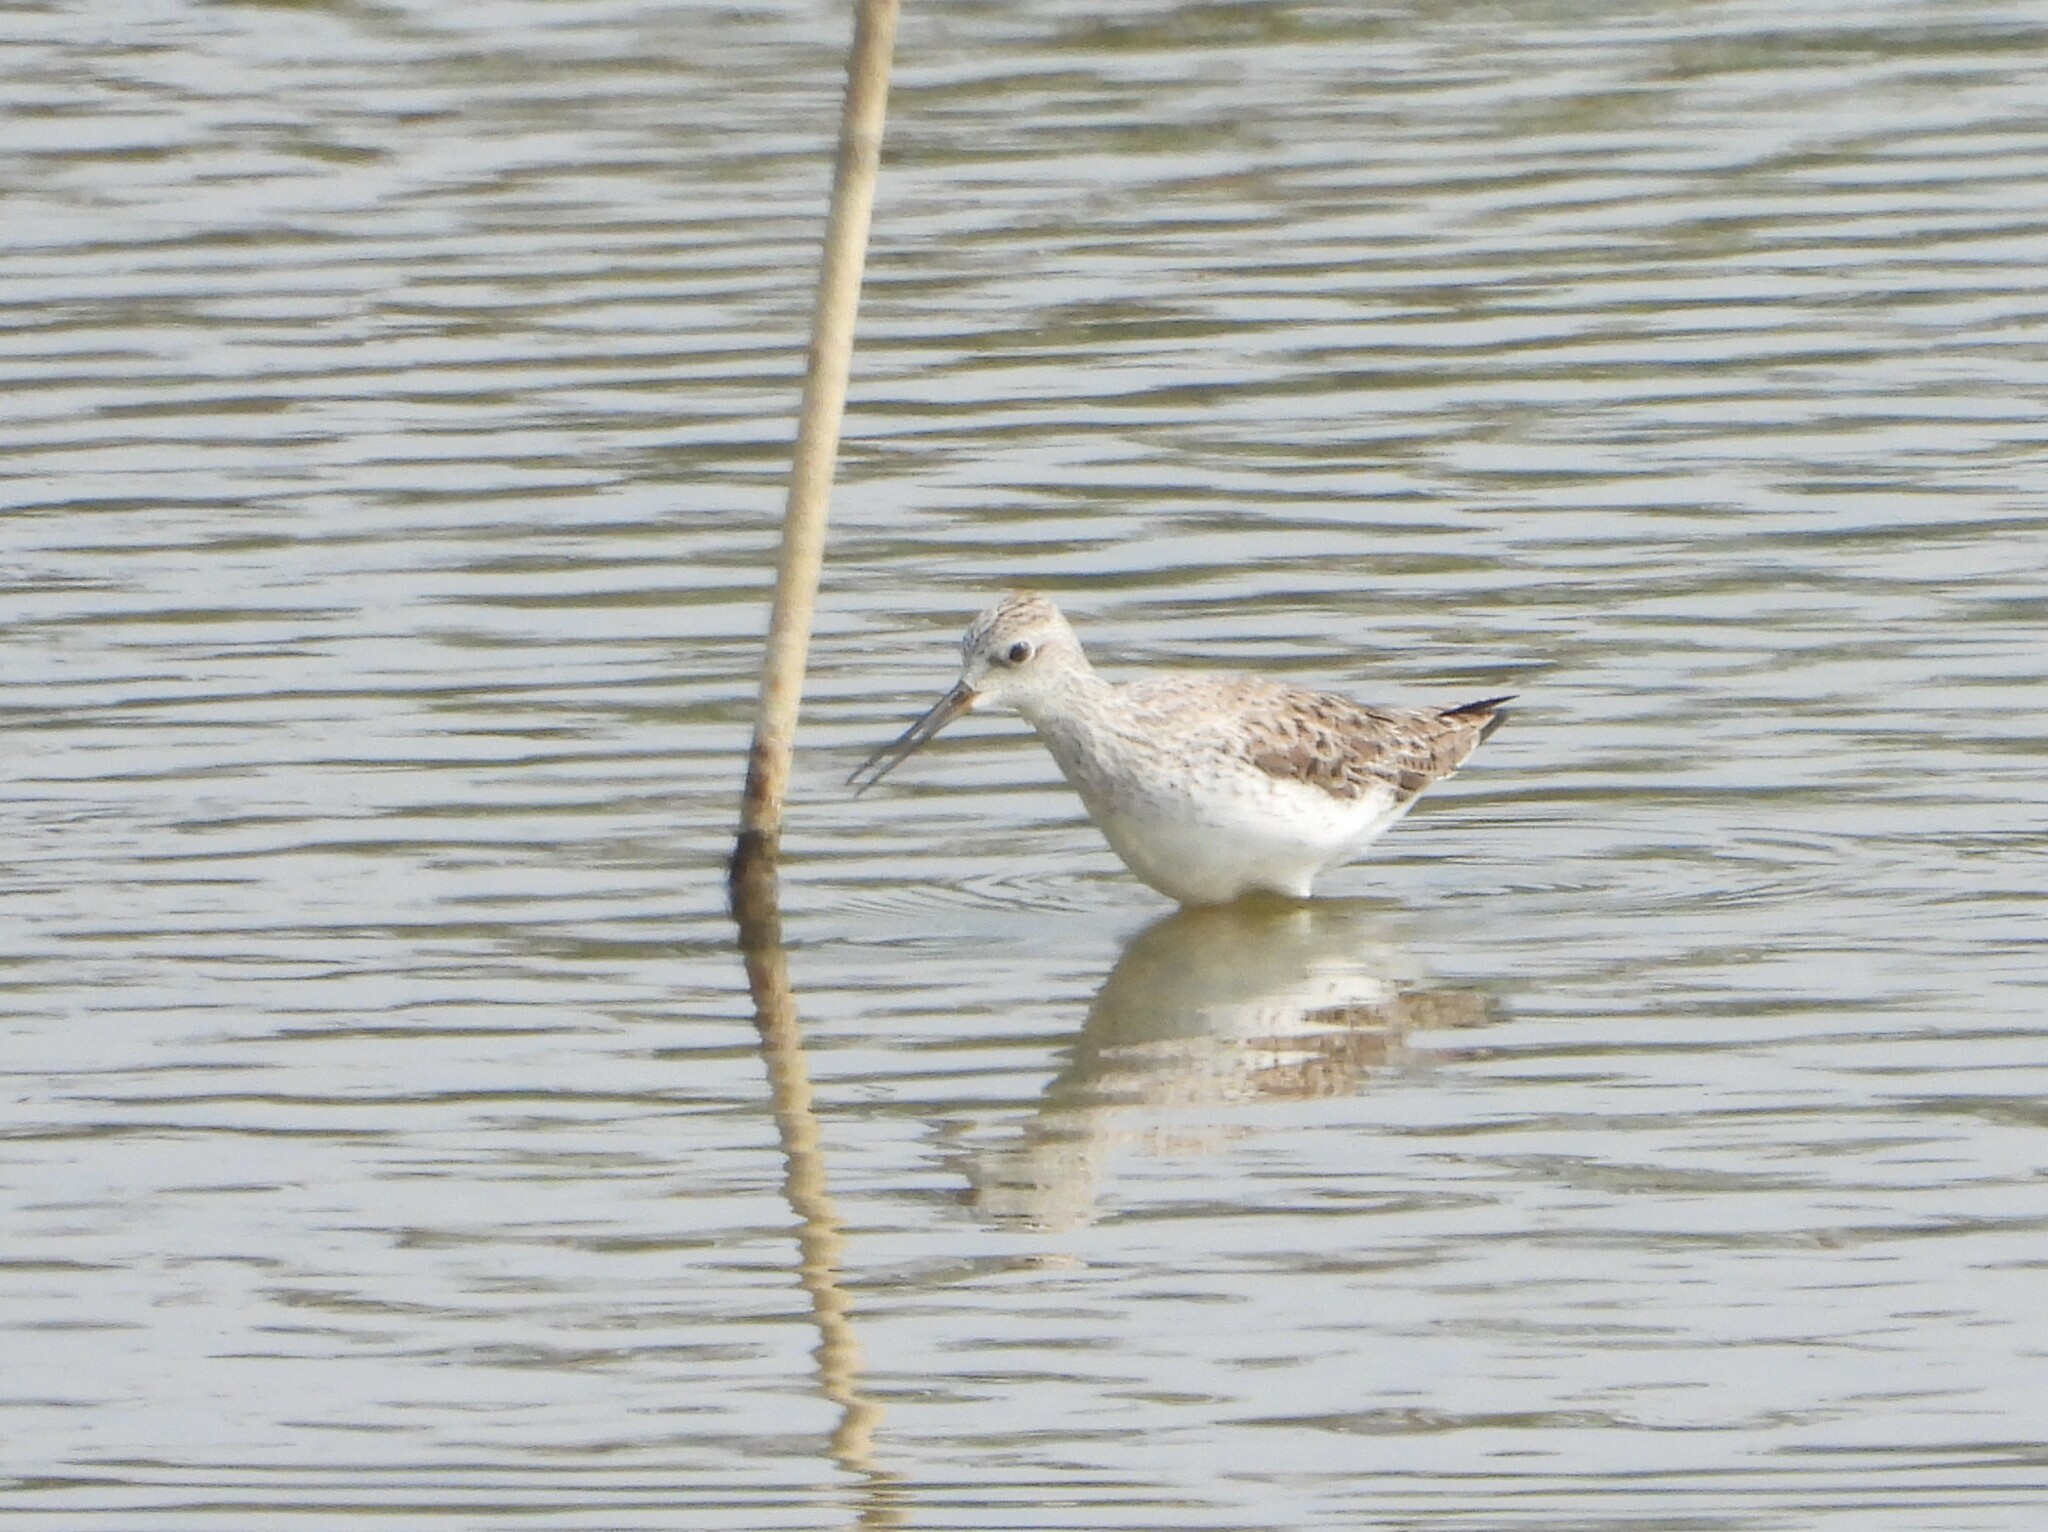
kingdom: Animalia
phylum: Chordata
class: Aves
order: Charadriiformes
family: Scolopacidae
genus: Tringa
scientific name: Tringa stagnatilis
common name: Marsh sandpiper
